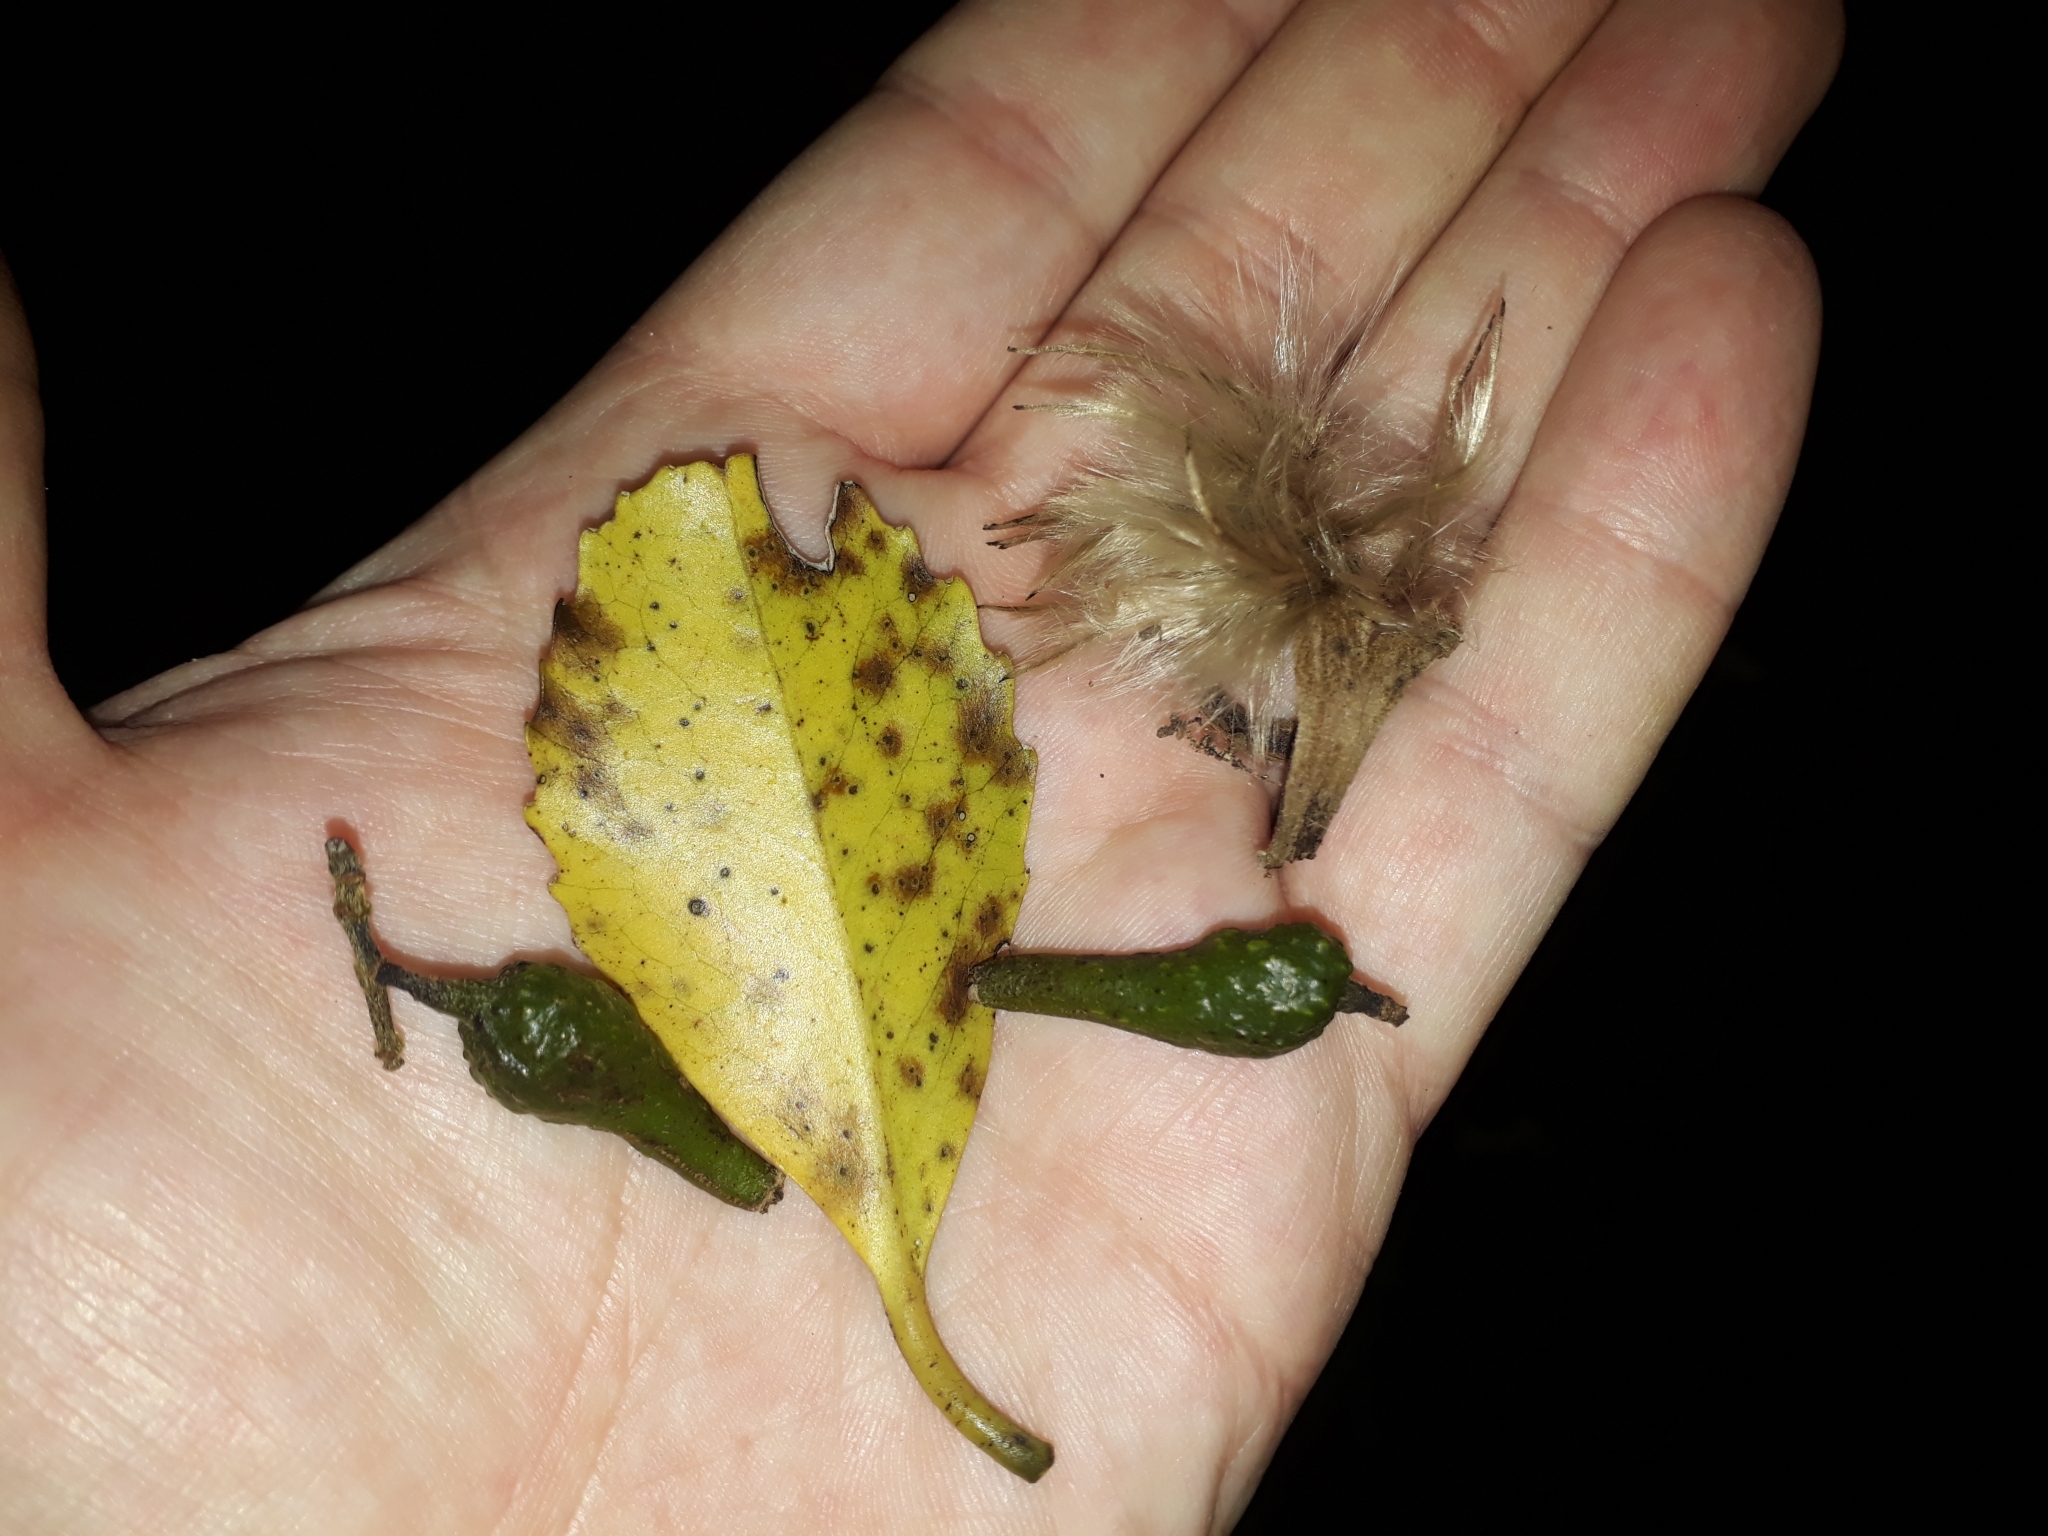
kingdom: Plantae
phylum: Tracheophyta
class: Magnoliopsida
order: Laurales
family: Atherospermataceae
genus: Laurelia
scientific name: Laurelia novae-zelandiae
